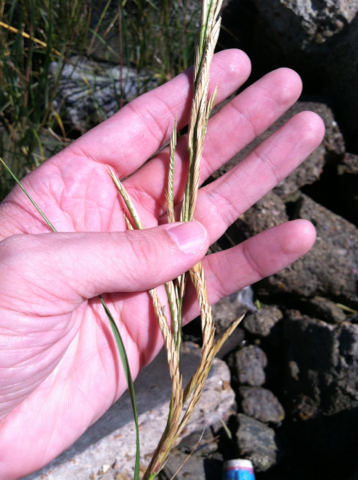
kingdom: Plantae
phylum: Tracheophyta
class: Liliopsida
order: Poales
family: Poaceae
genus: Sporobolus
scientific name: Sporobolus alterniflorus
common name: Atlantic cordgrass
